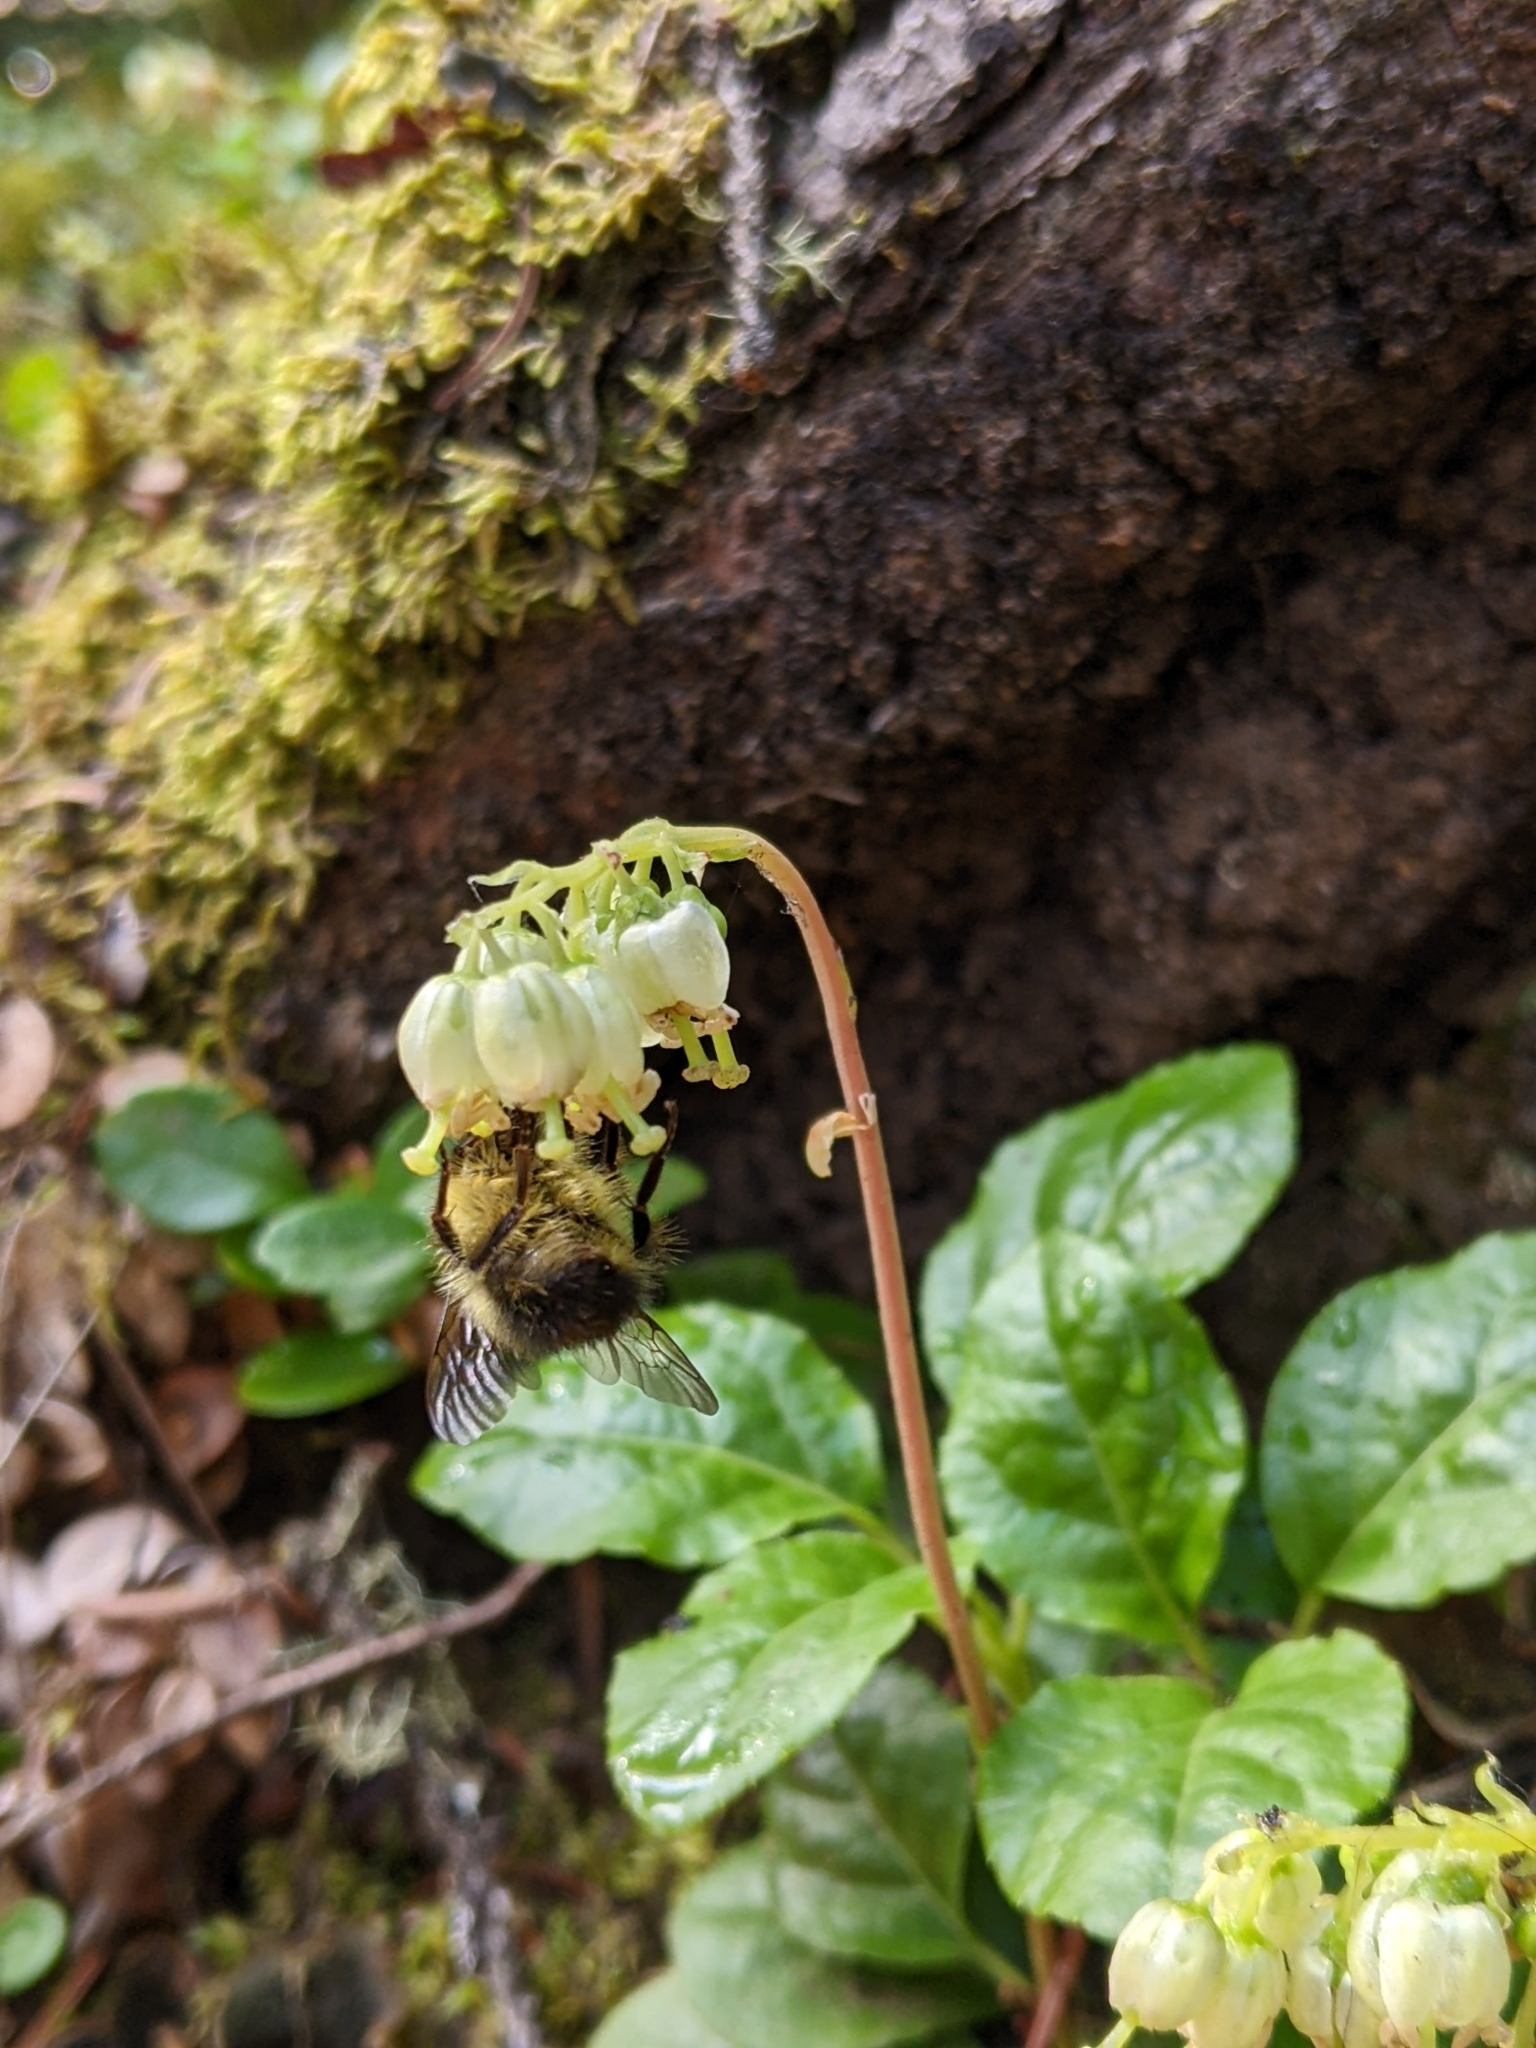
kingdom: Plantae
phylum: Tracheophyta
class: Magnoliopsida
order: Ericales
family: Ericaceae
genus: Orthilia
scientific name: Orthilia secunda
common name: One-sided orthilia
